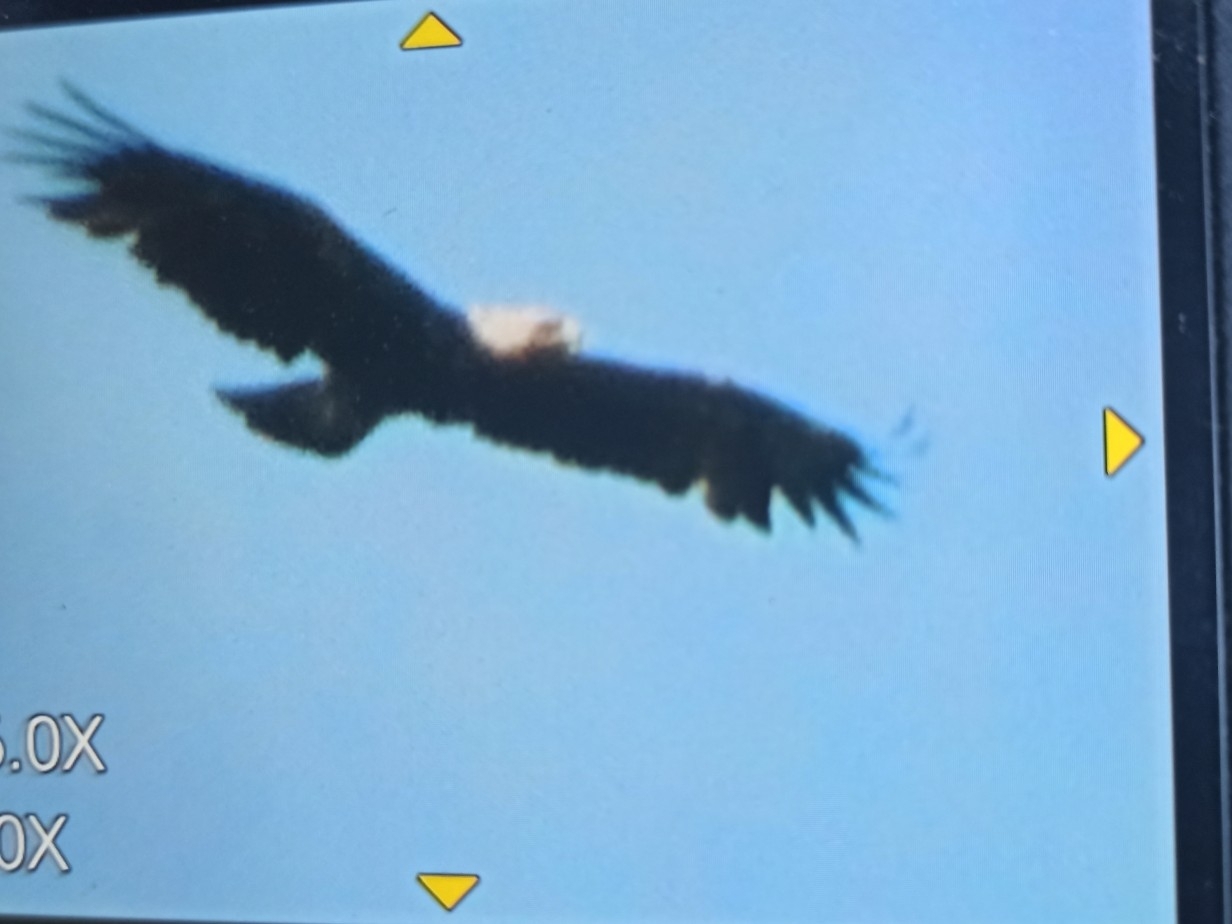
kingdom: Animalia
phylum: Chordata
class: Aves
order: Accipitriformes
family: Accipitridae
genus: Aquila
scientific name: Aquila heliaca
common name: Eastern imperial eagle
